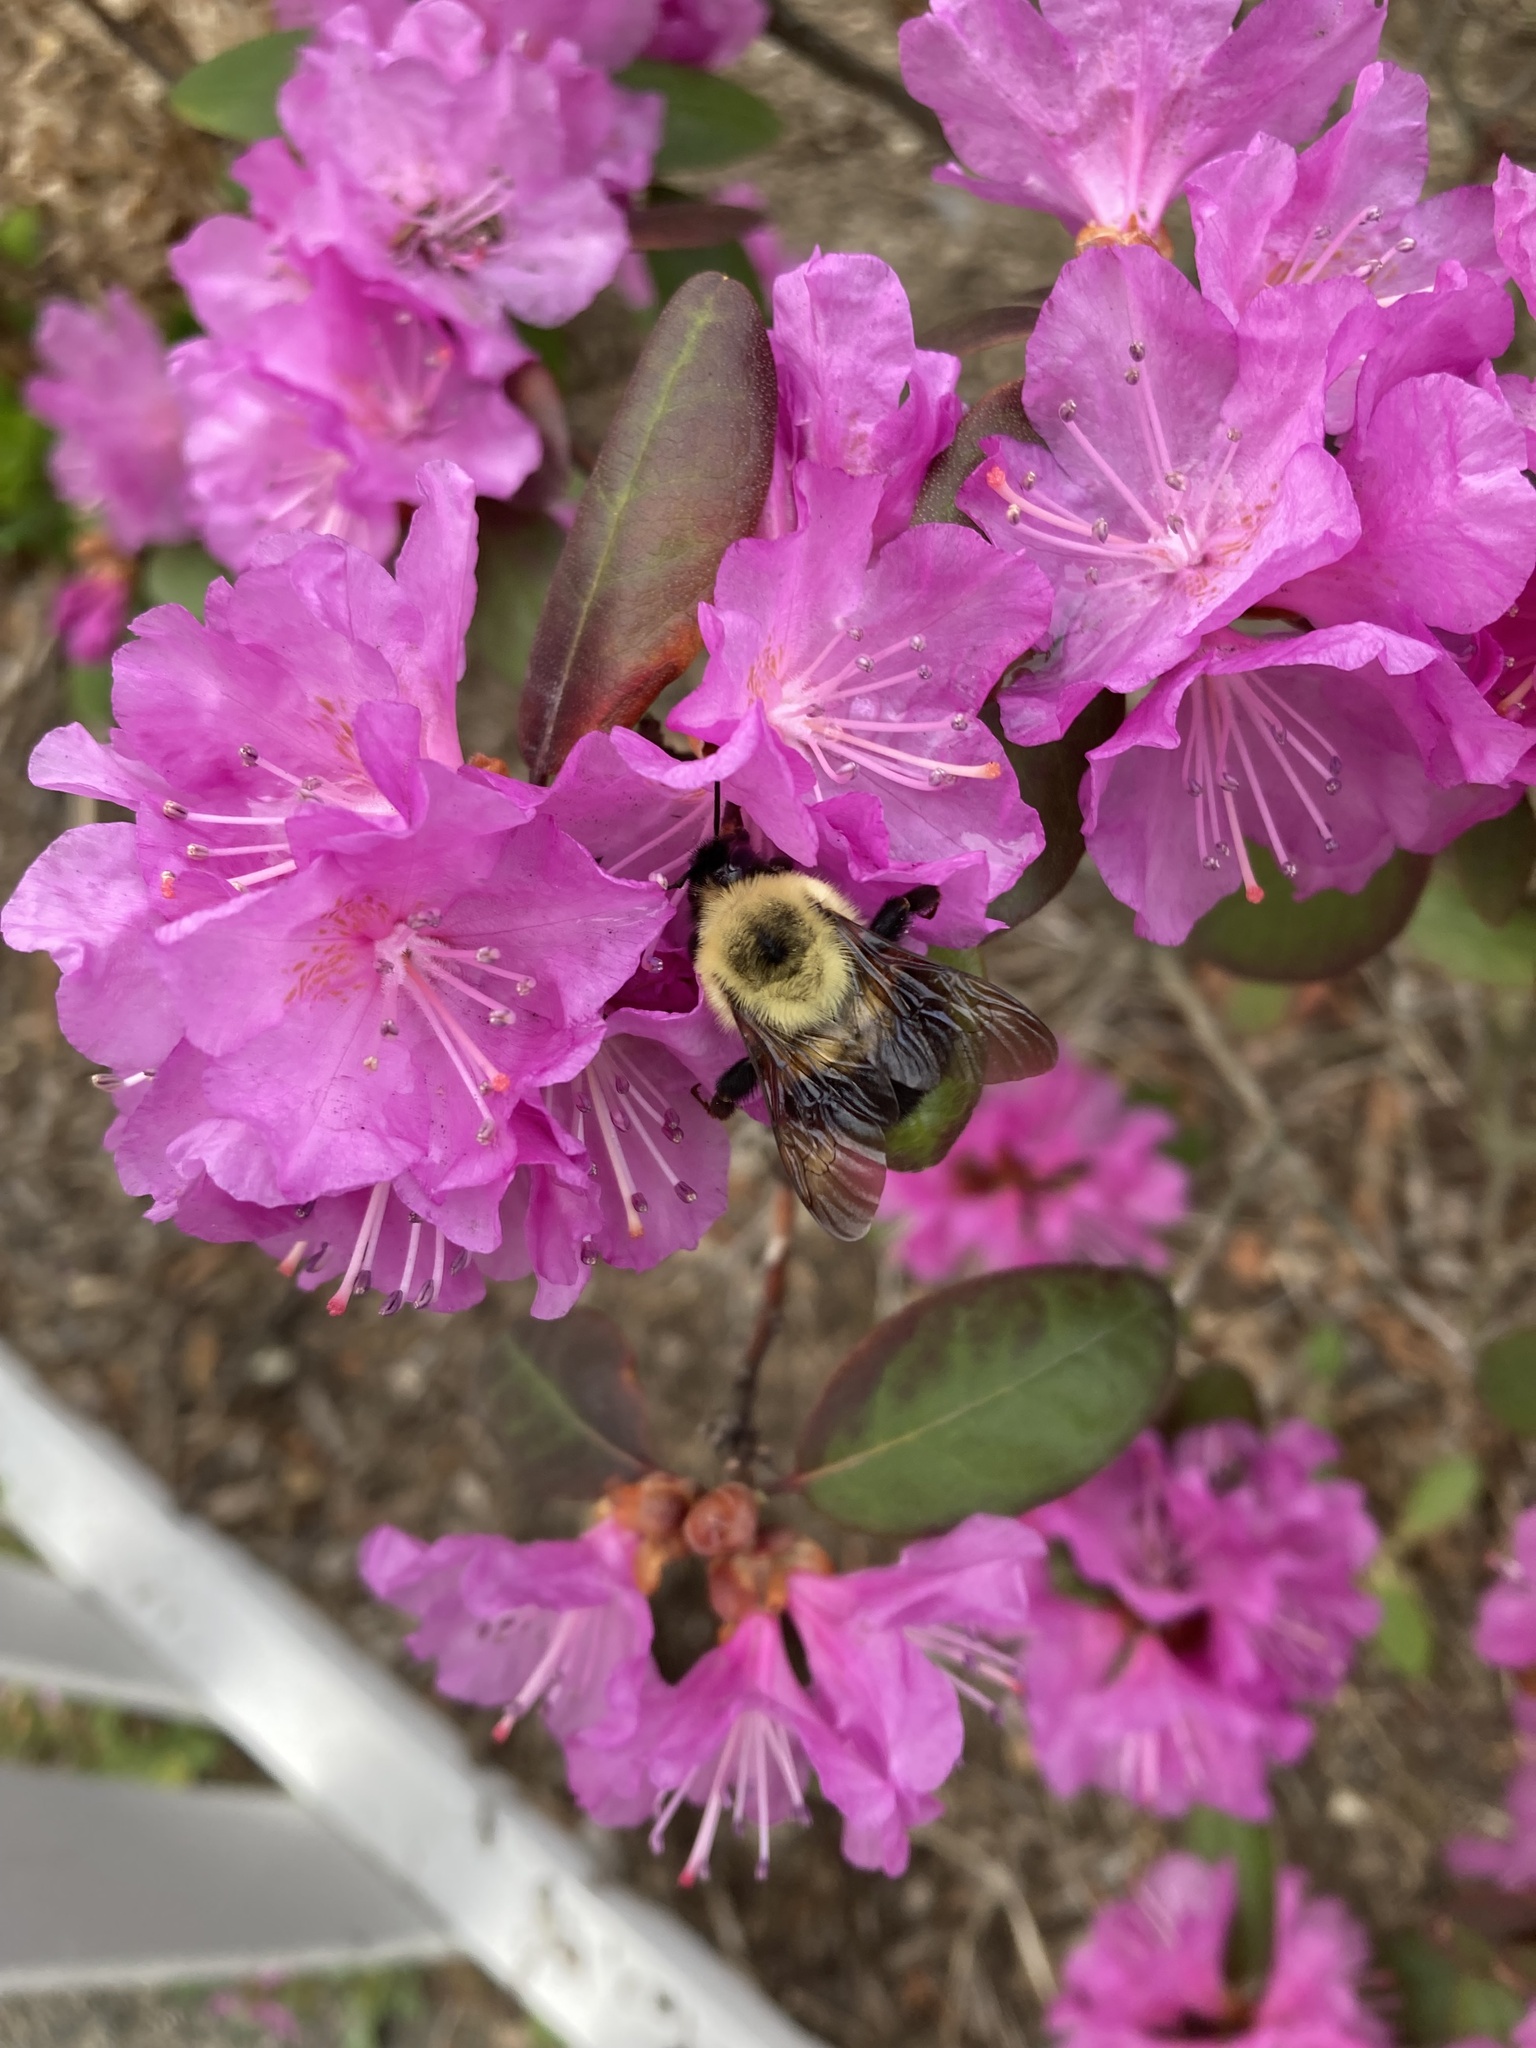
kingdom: Animalia
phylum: Arthropoda
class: Insecta
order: Hymenoptera
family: Apidae
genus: Bombus
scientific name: Bombus bimaculatus
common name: Two-spotted bumble bee
